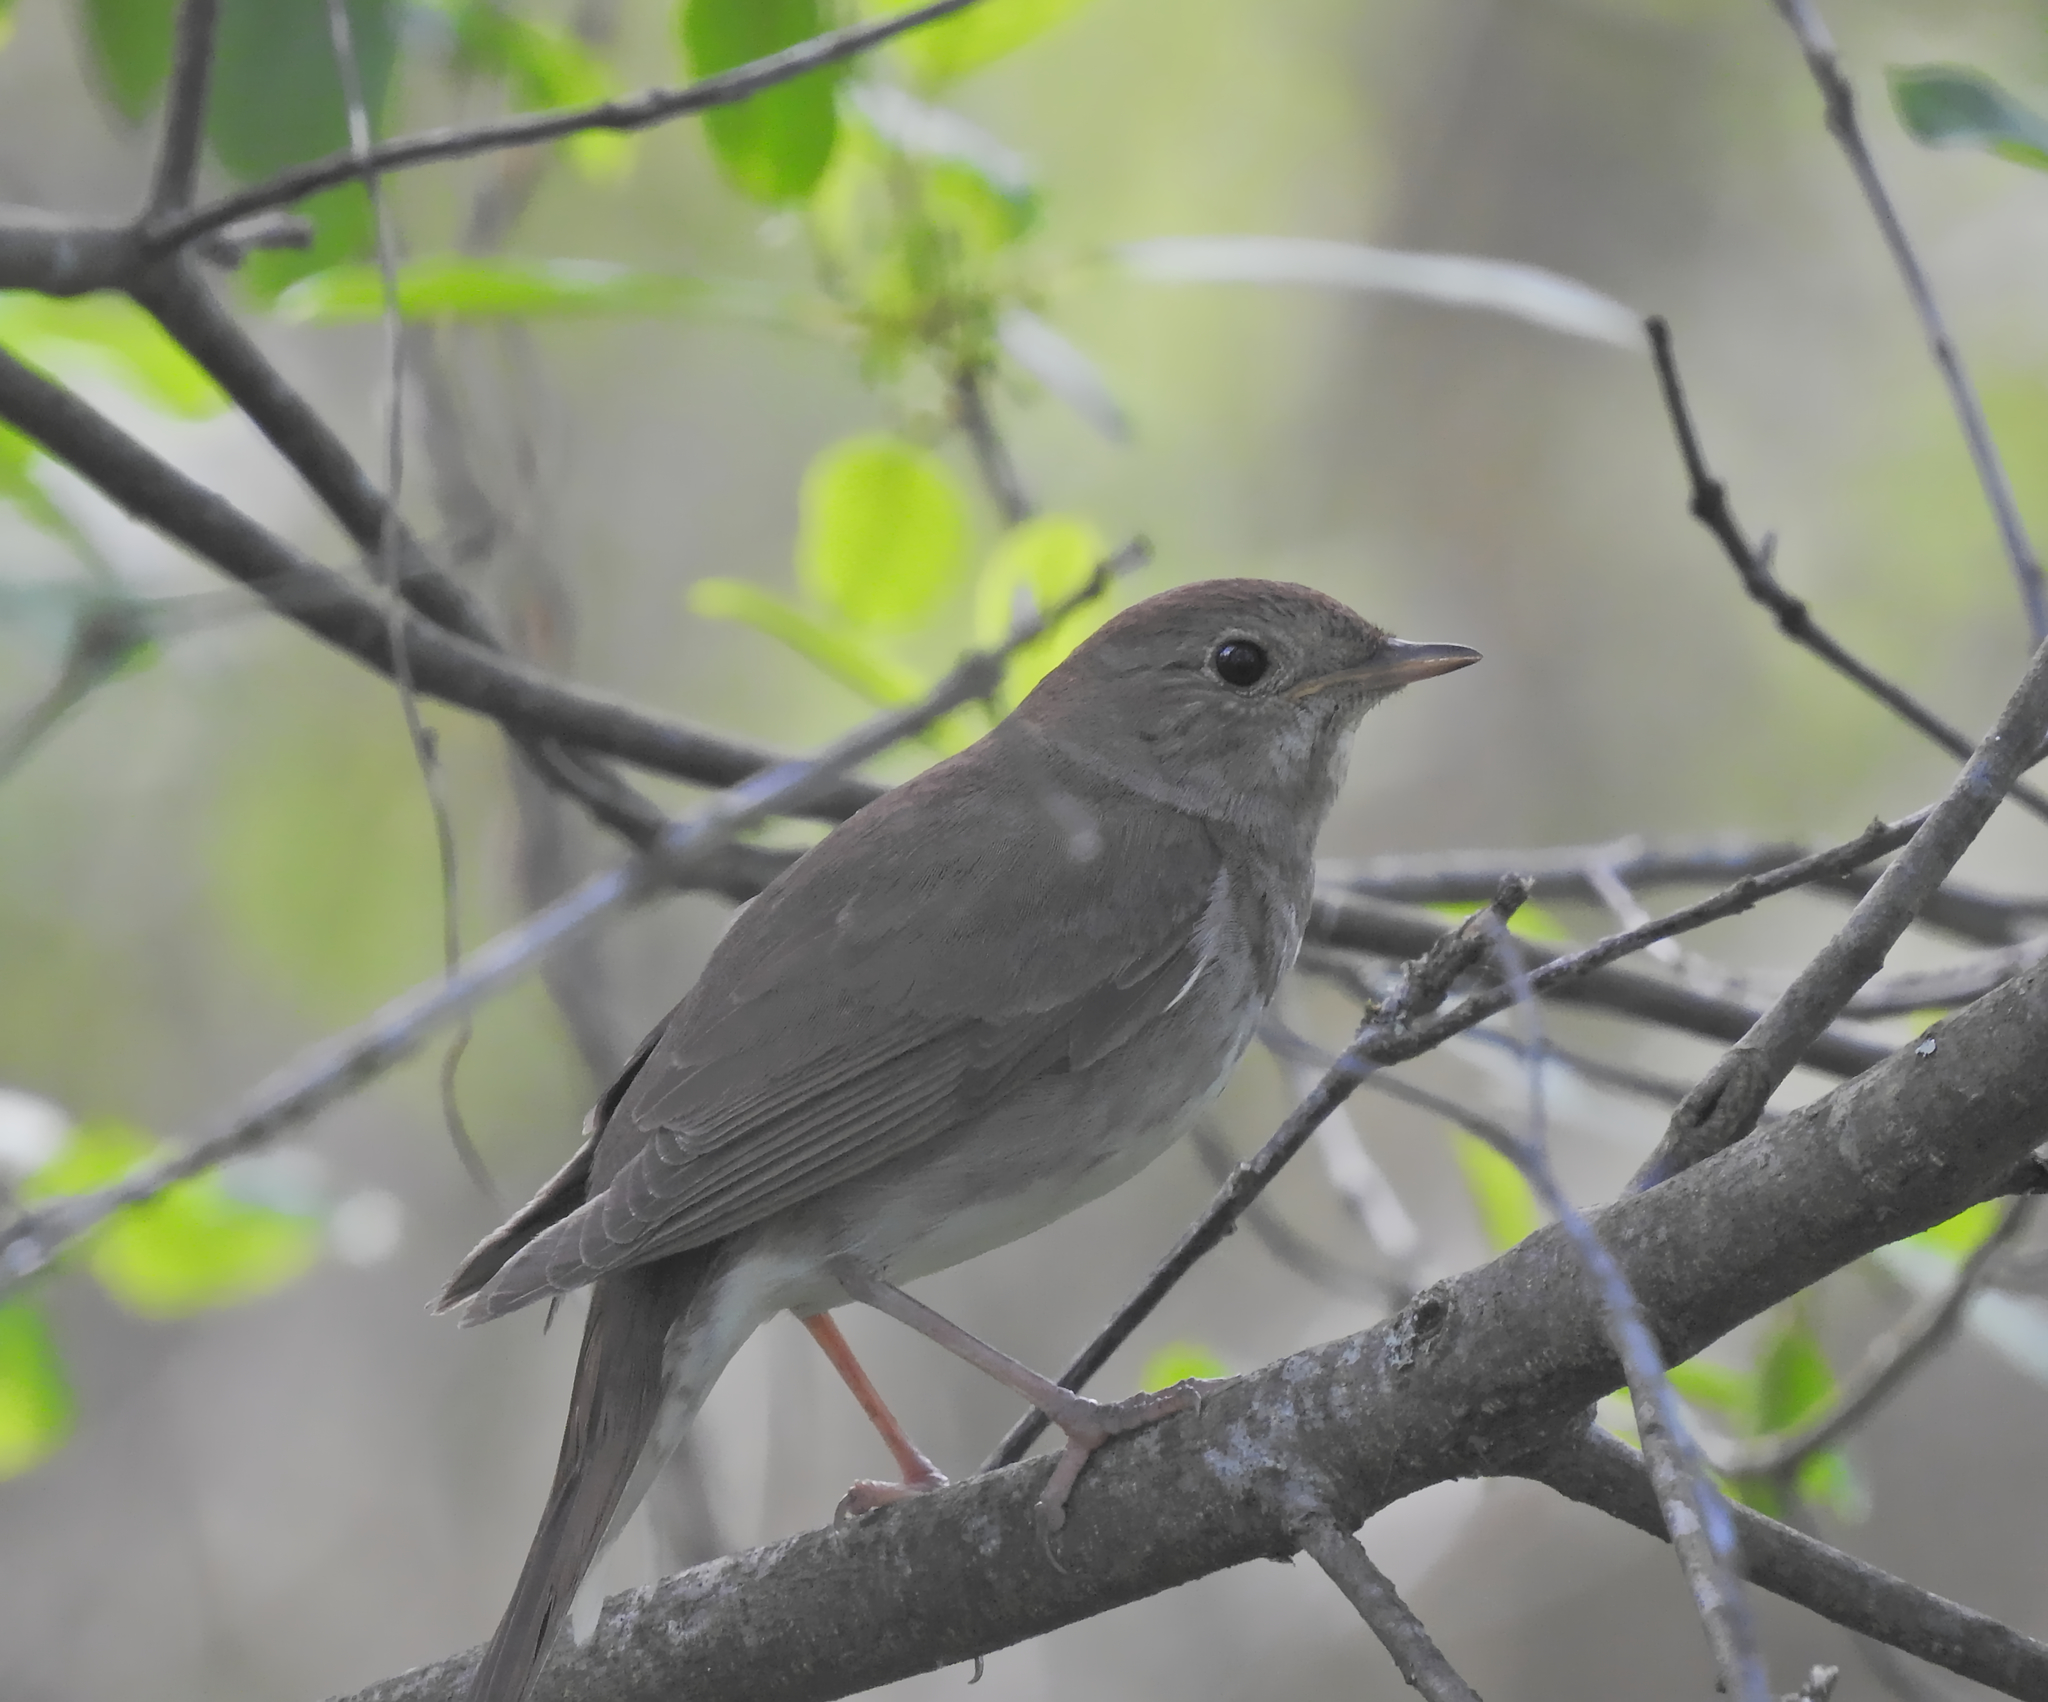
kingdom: Animalia
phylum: Chordata
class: Aves
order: Passeriformes
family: Muscicapidae
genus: Luscinia
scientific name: Luscinia luscinia
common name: Thrush nightingale
